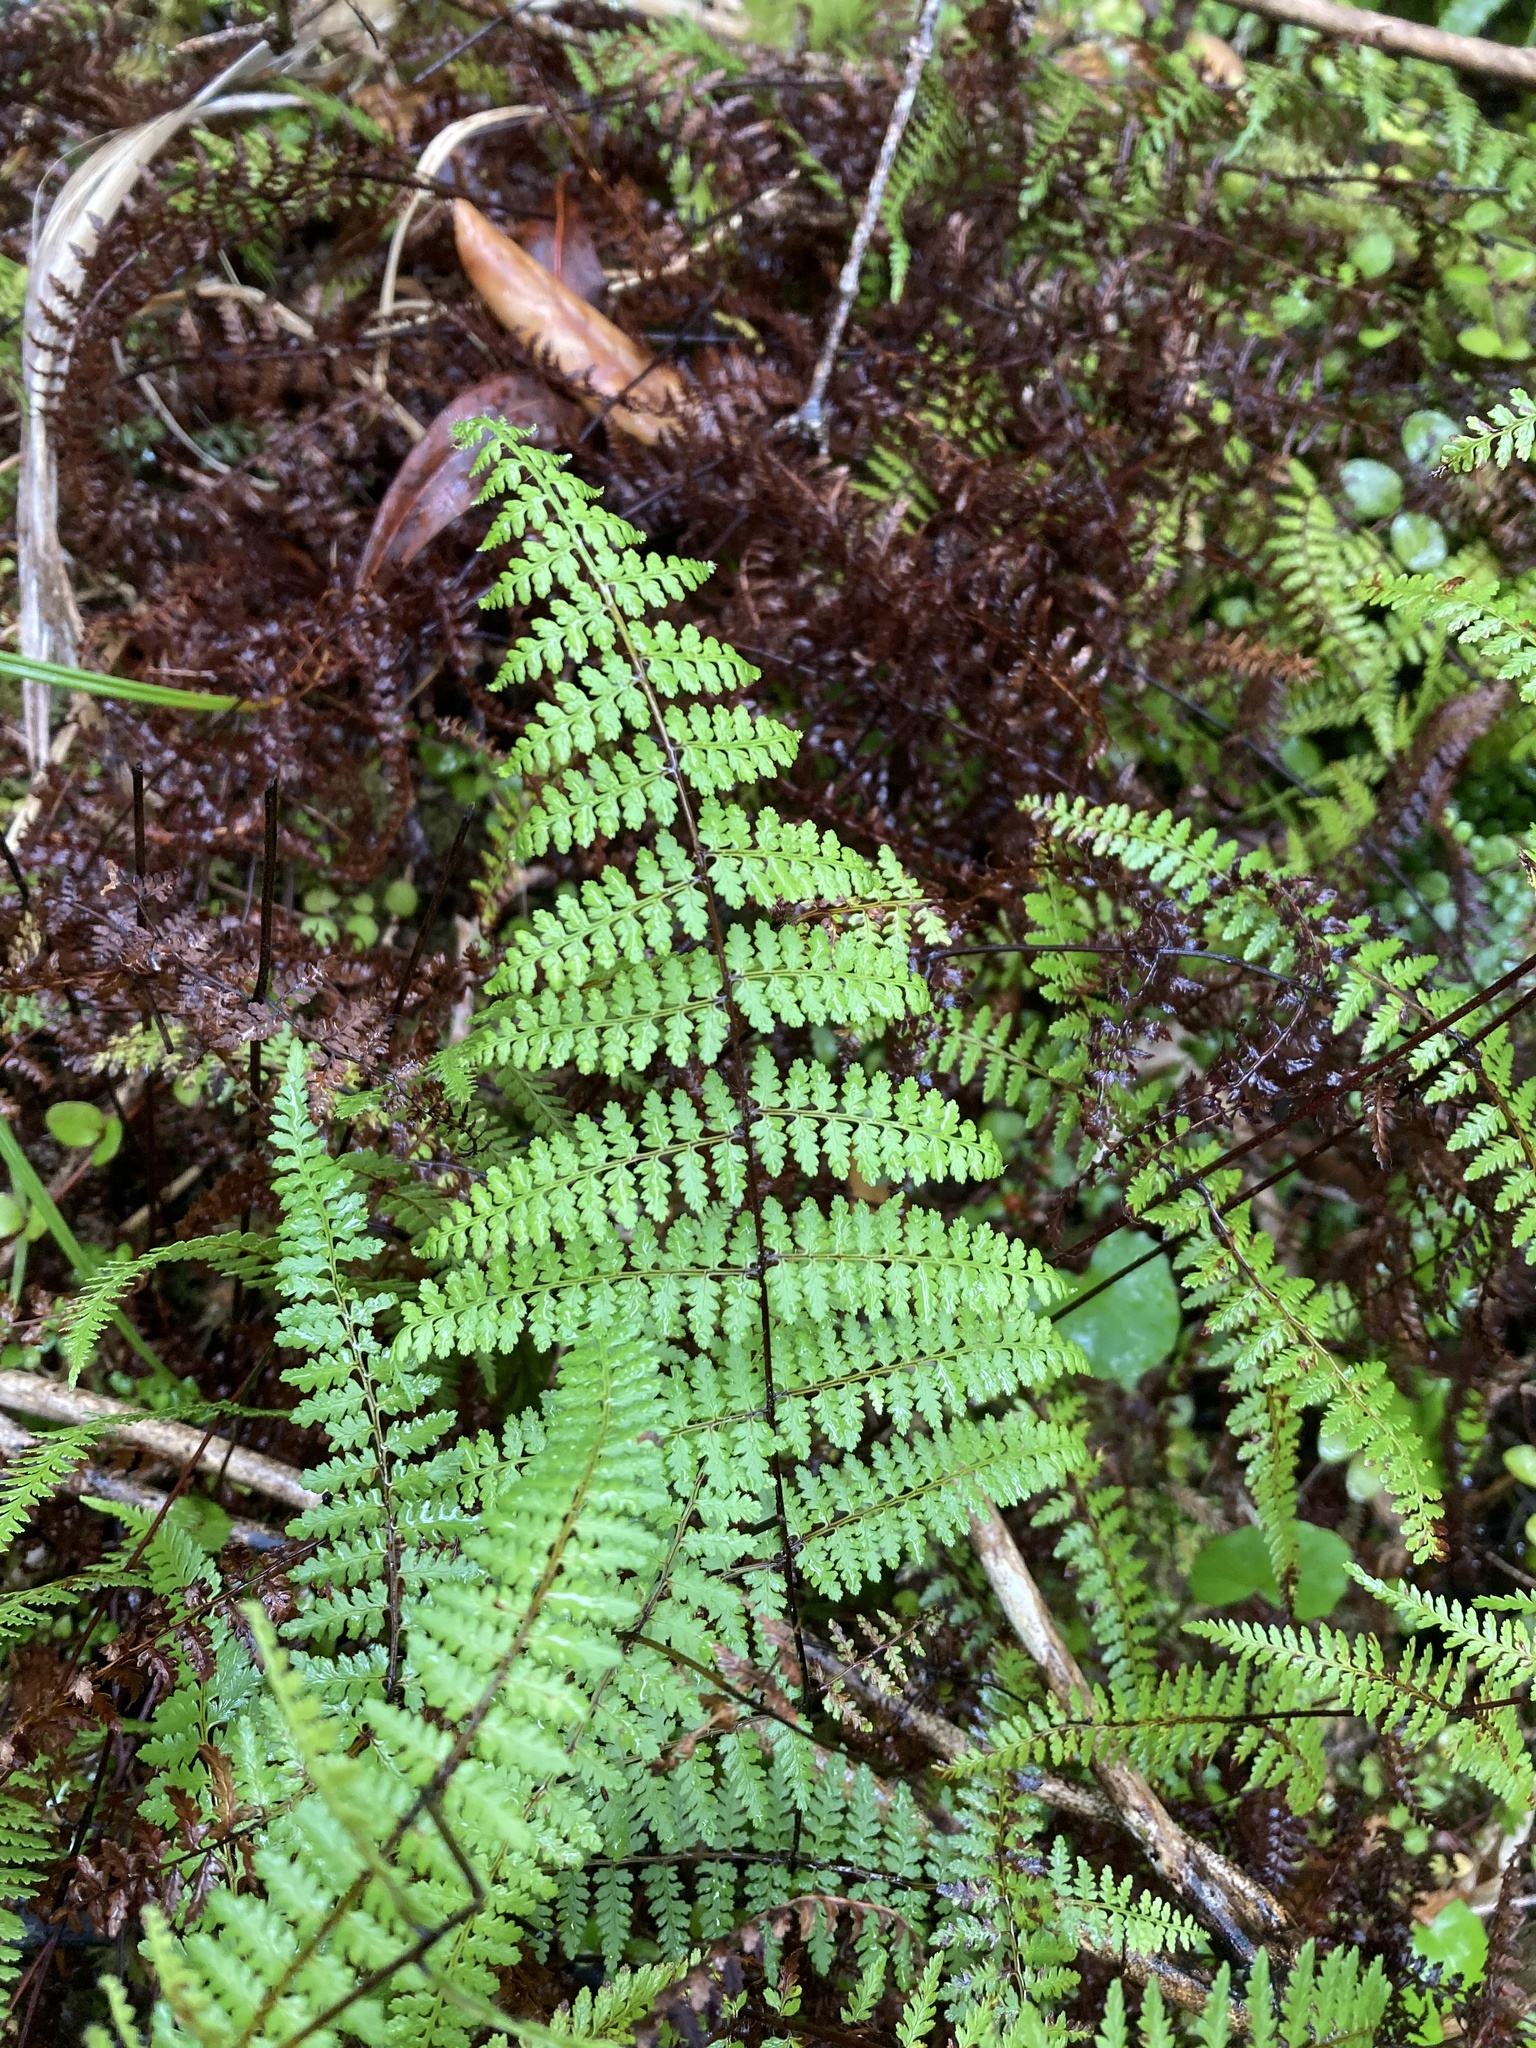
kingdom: Plantae
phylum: Tracheophyta
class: Polypodiopsida
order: Polypodiales
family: Dennstaedtiaceae
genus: Hiya
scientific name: Hiya distans
